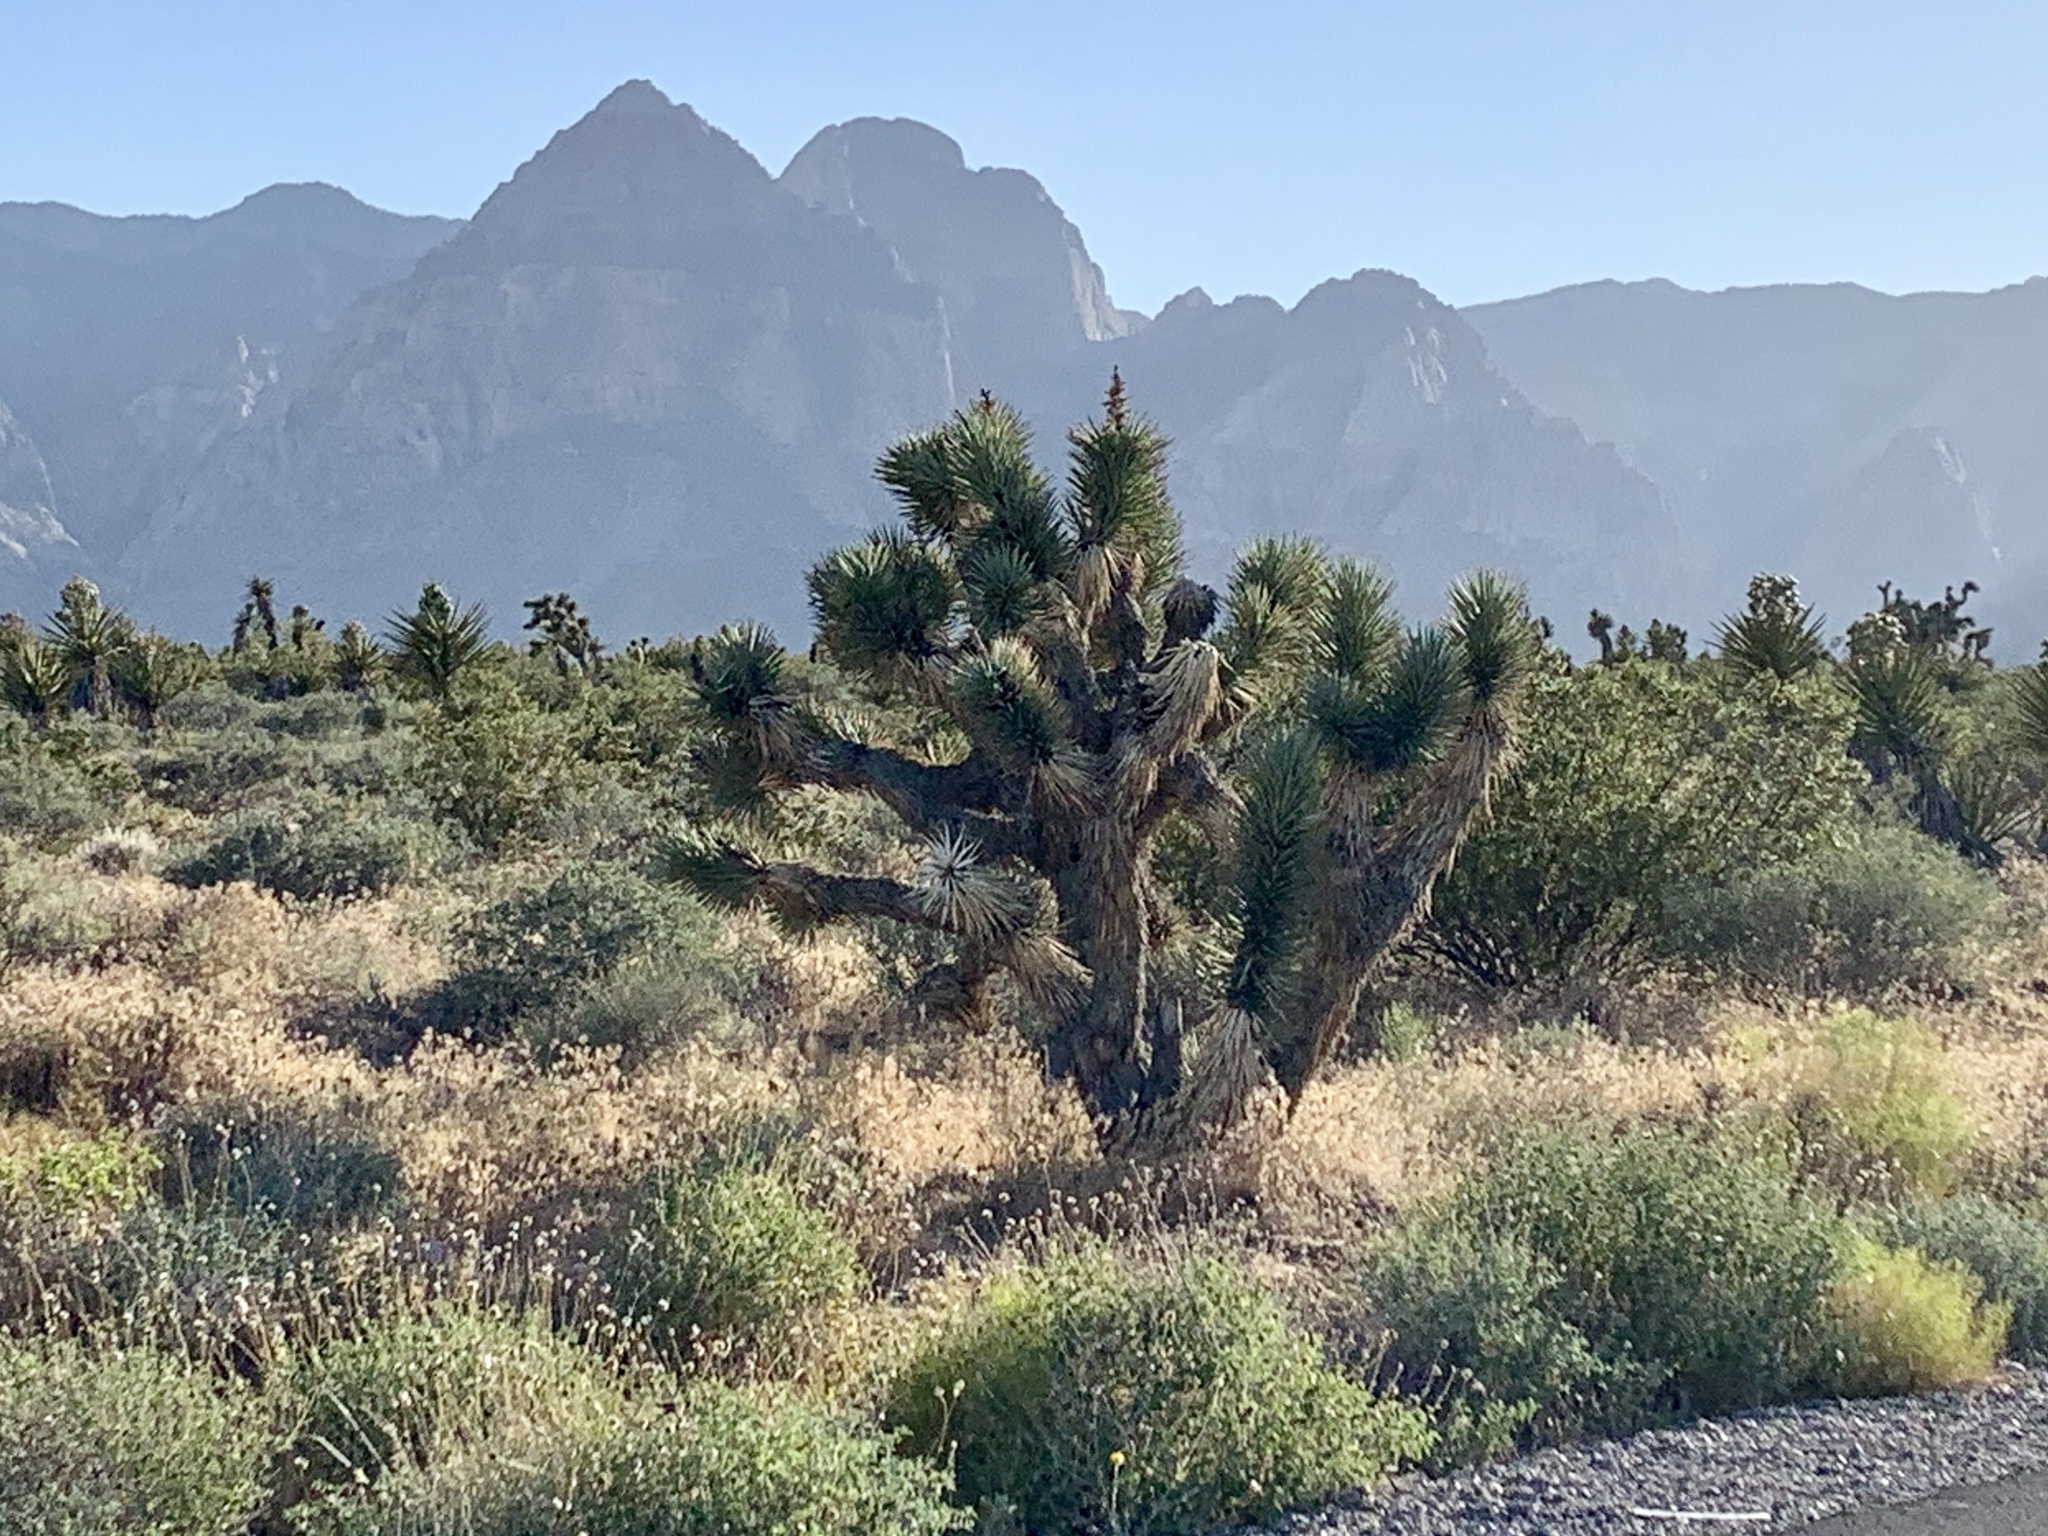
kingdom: Plantae
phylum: Tracheophyta
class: Liliopsida
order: Asparagales
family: Asparagaceae
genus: Yucca
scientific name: Yucca brevifolia
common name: Joshua tree
